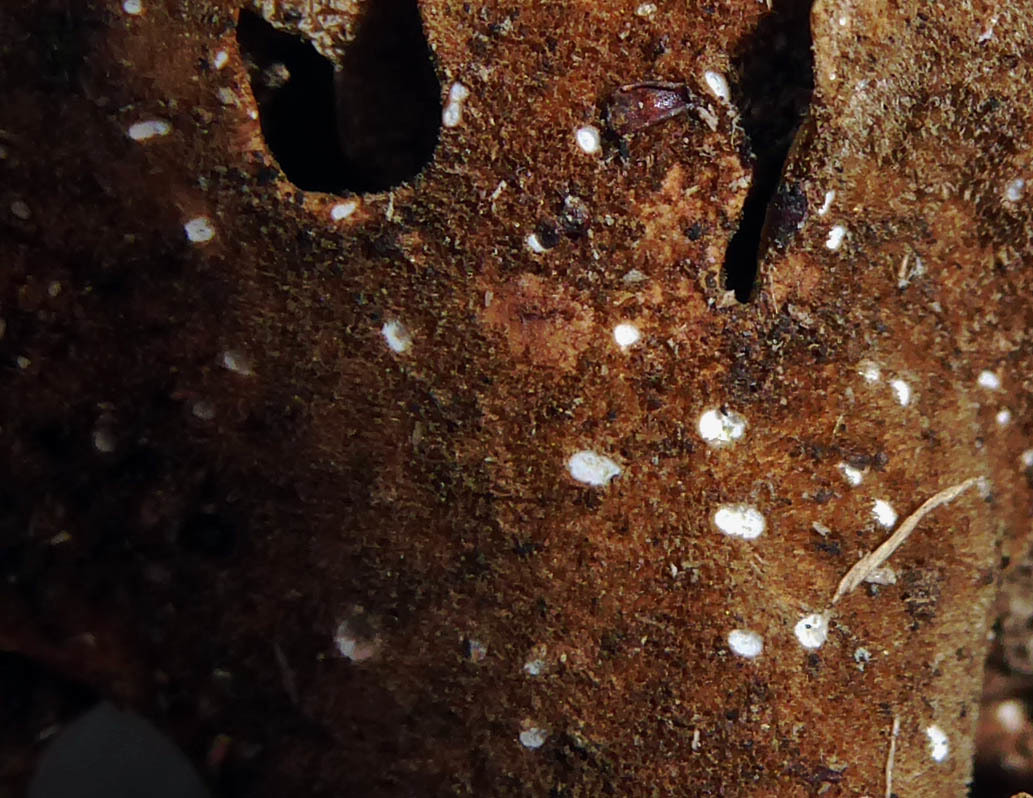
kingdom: Fungi
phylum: Ascomycota
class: Lecanoromycetes
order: Peltigerales
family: Lobariaceae
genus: Pseudocyphellaria
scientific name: Pseudocyphellaria lividofusca
